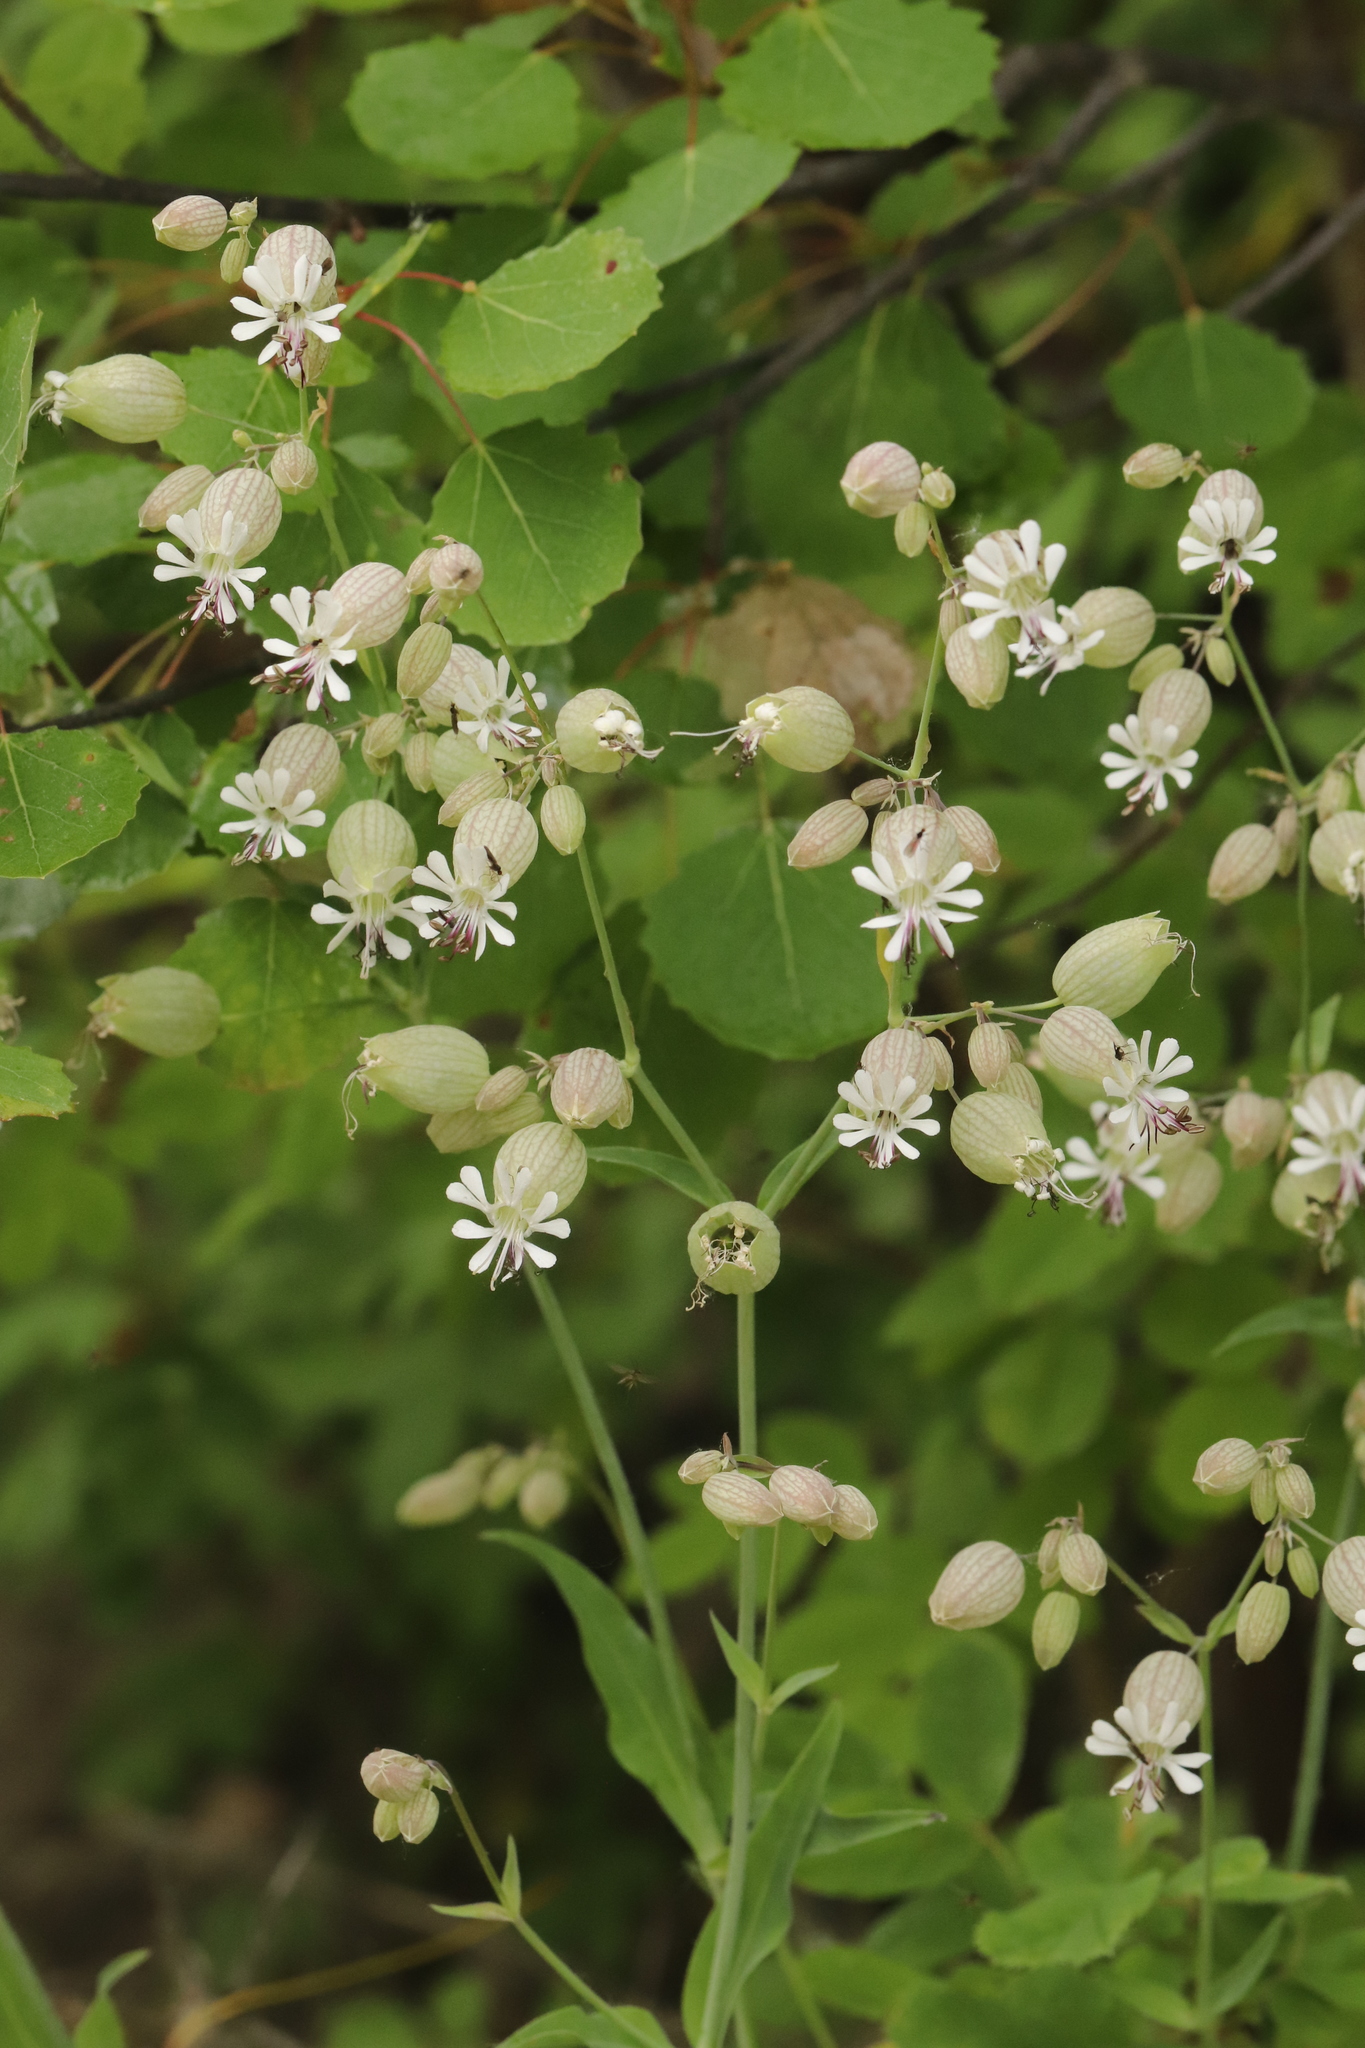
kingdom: Plantae
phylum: Tracheophyta
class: Magnoliopsida
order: Caryophyllales
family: Caryophyllaceae
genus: Silene
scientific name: Silene vulgaris
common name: Bladder campion
